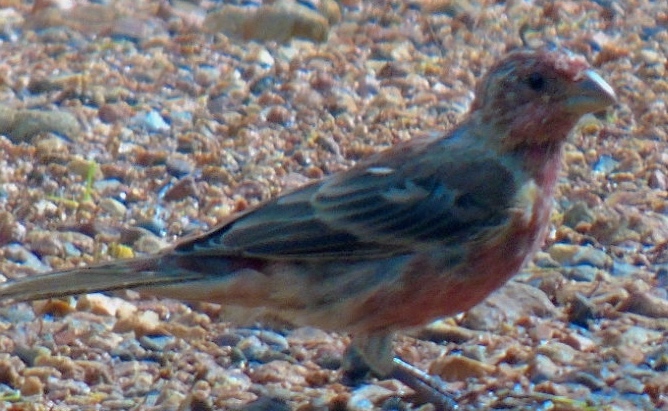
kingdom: Animalia
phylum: Chordata
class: Aves
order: Passeriformes
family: Fringillidae
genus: Haemorhous
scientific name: Haemorhous mexicanus
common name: House finch
